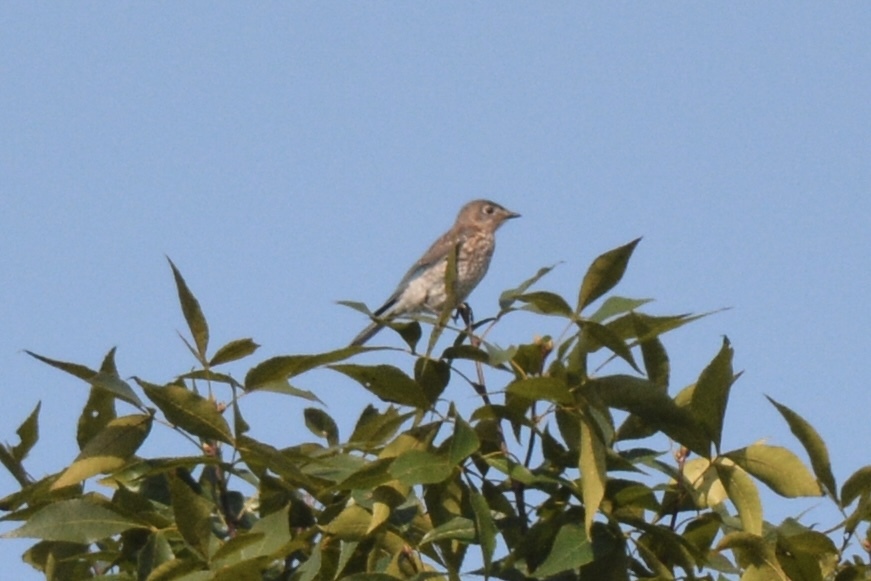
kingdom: Animalia
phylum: Chordata
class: Aves
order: Passeriformes
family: Turdidae
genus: Sialia
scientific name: Sialia sialis
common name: Eastern bluebird
